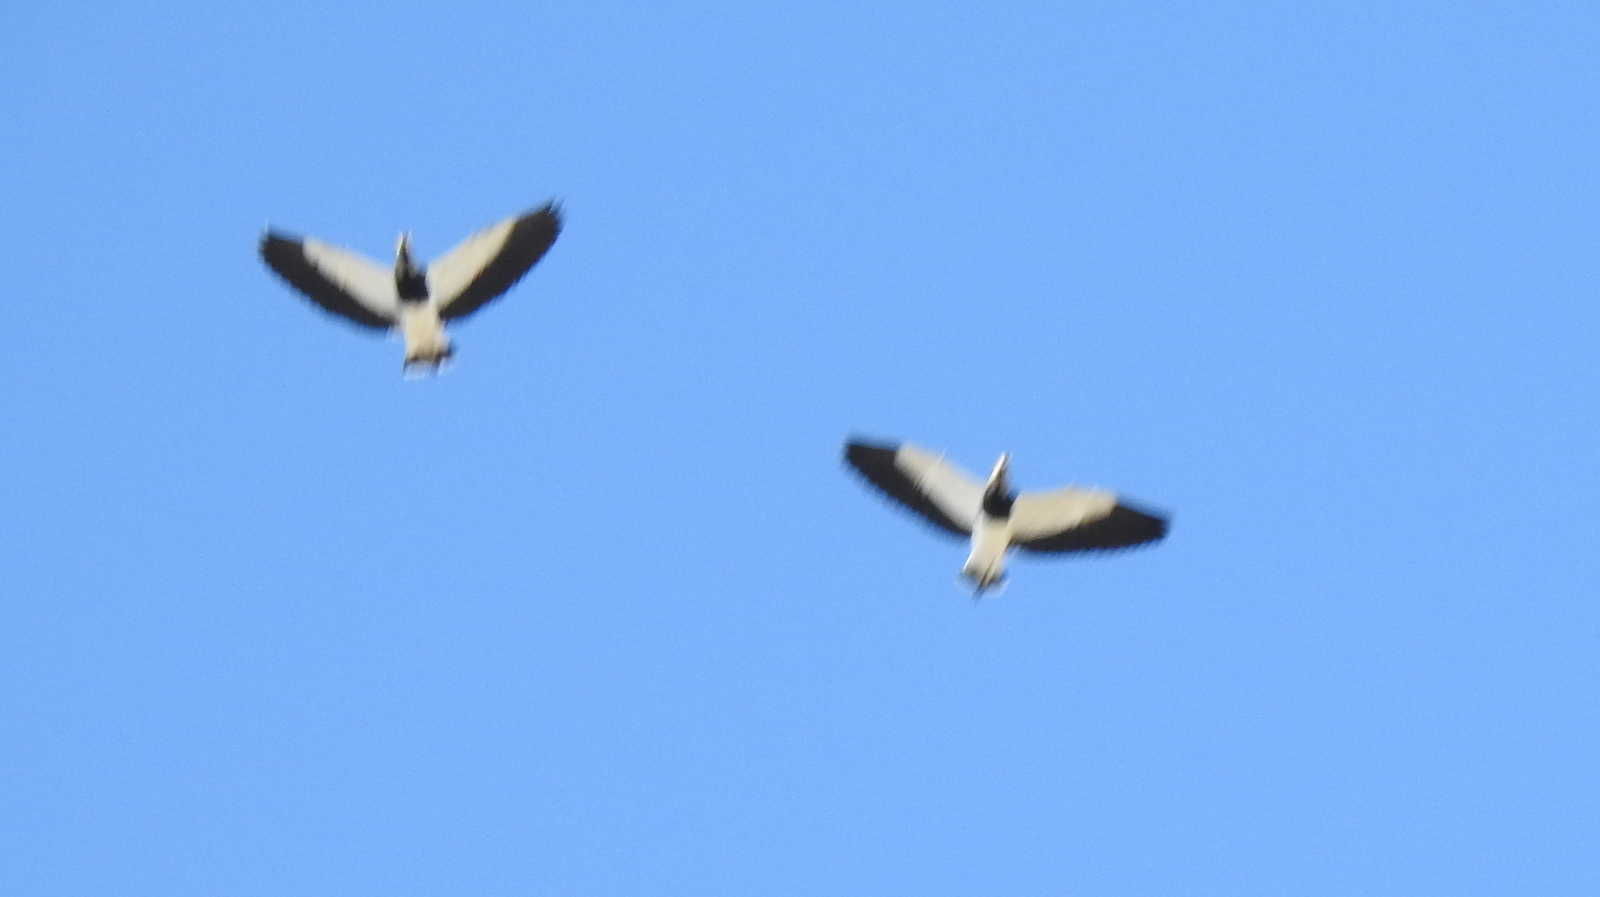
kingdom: Animalia
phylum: Chordata
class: Aves
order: Charadriiformes
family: Charadriidae
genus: Vanellus
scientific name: Vanellus chilensis
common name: Southern lapwing
